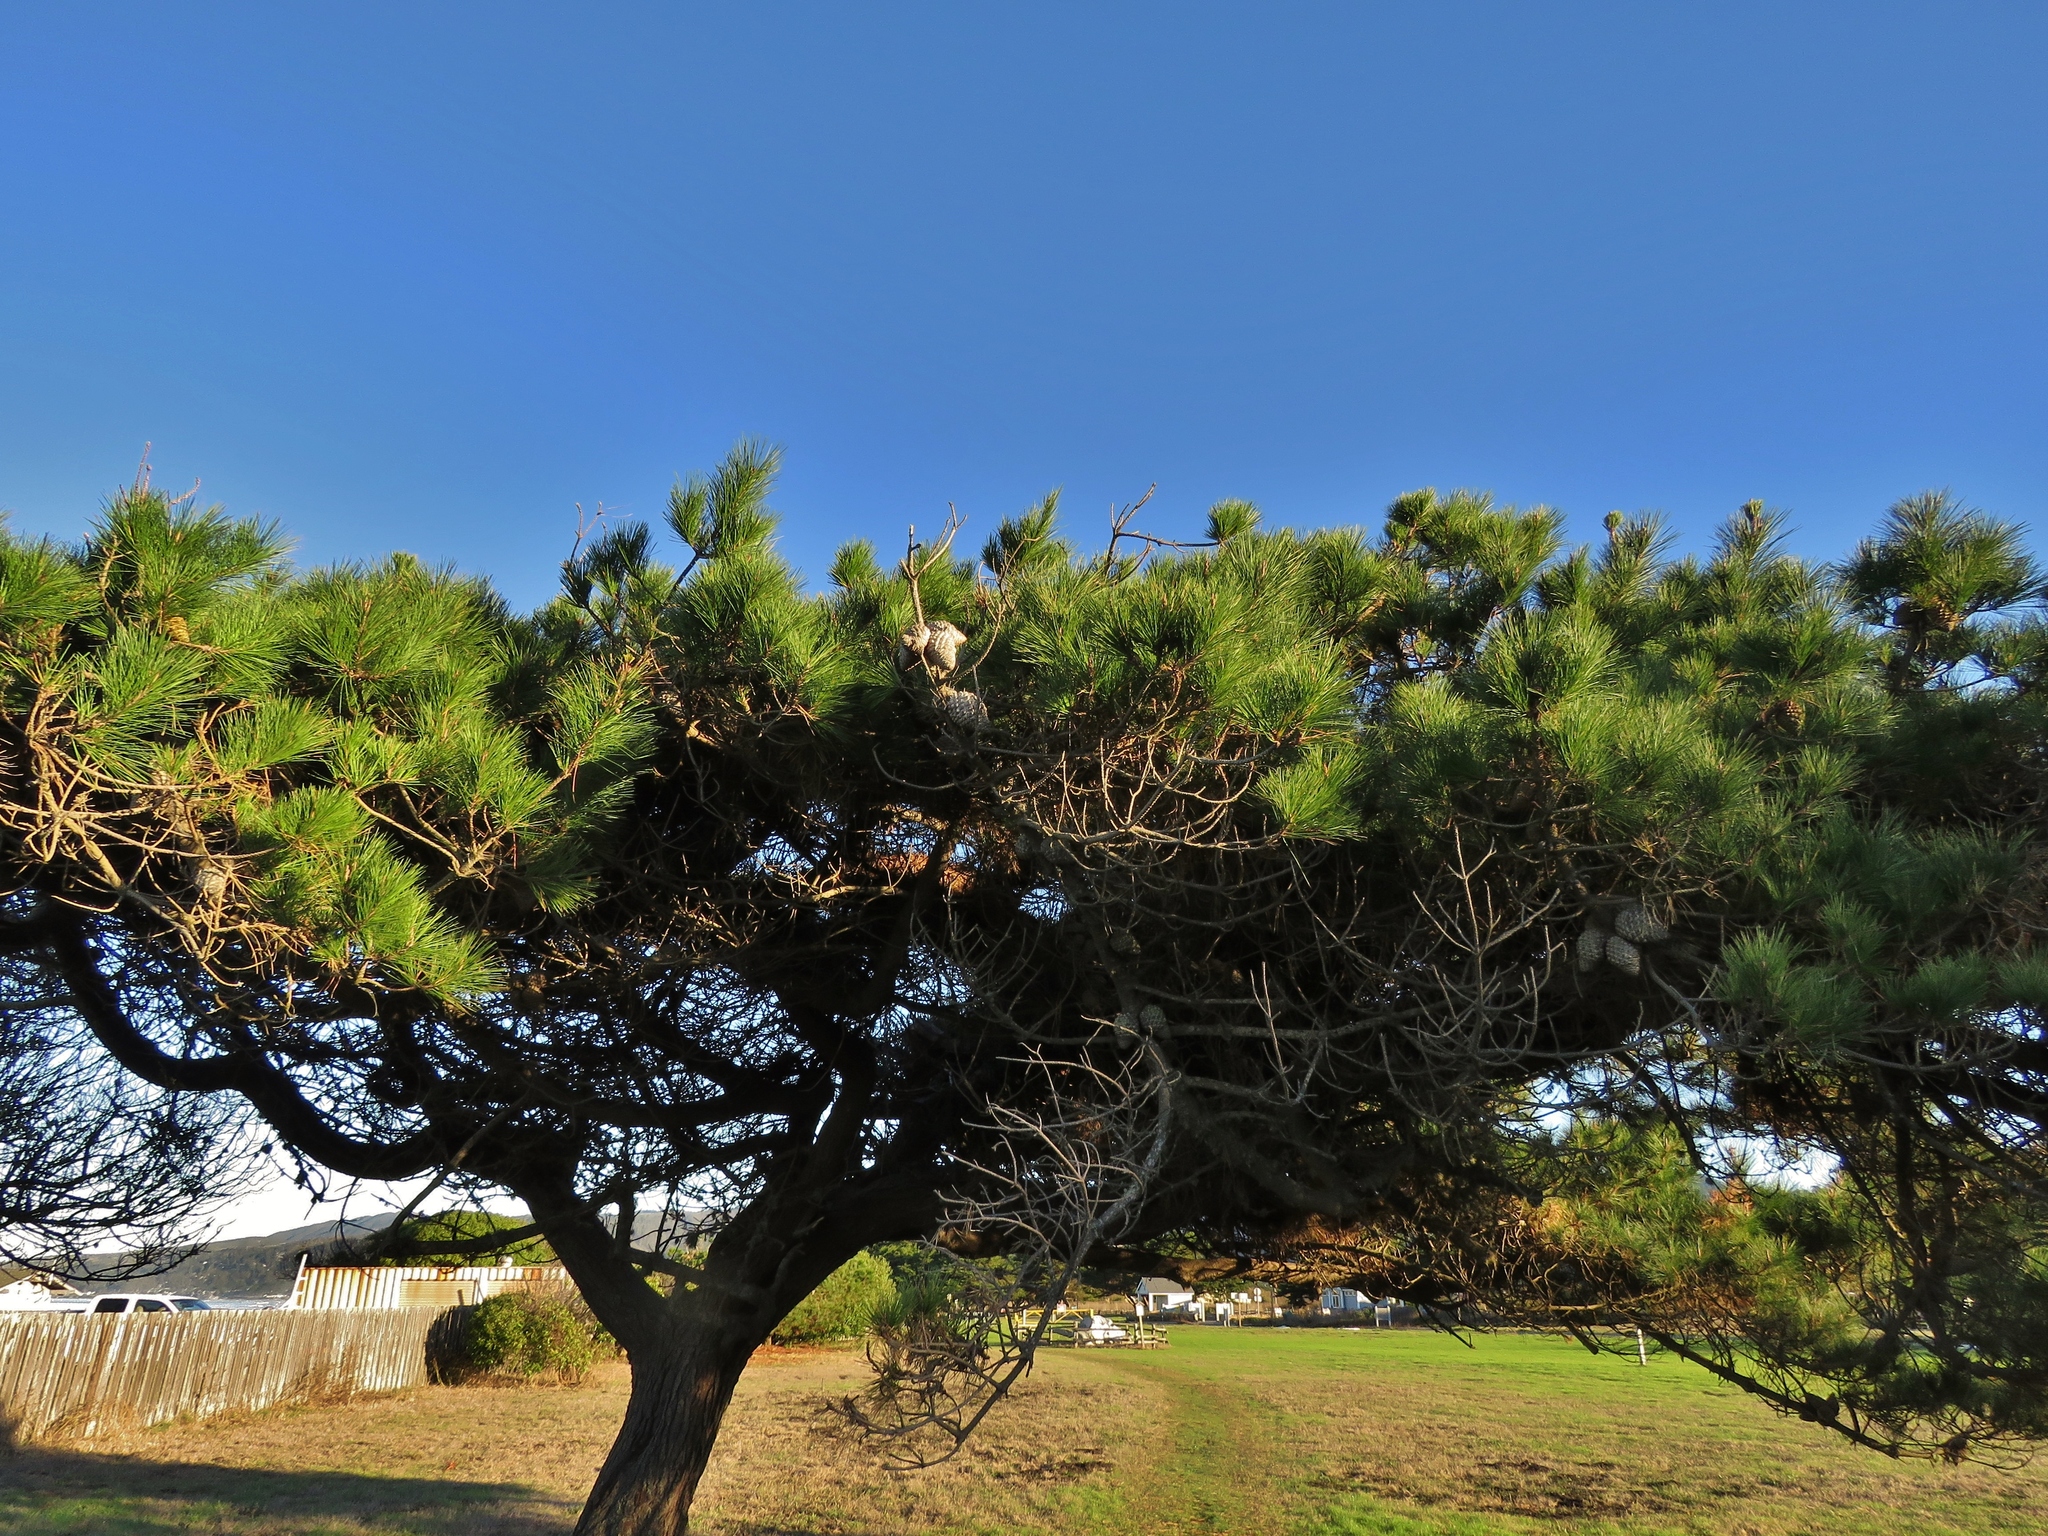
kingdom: Plantae
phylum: Tracheophyta
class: Pinopsida
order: Pinales
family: Pinaceae
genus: Pinus
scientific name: Pinus radiata
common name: Monterey pine
